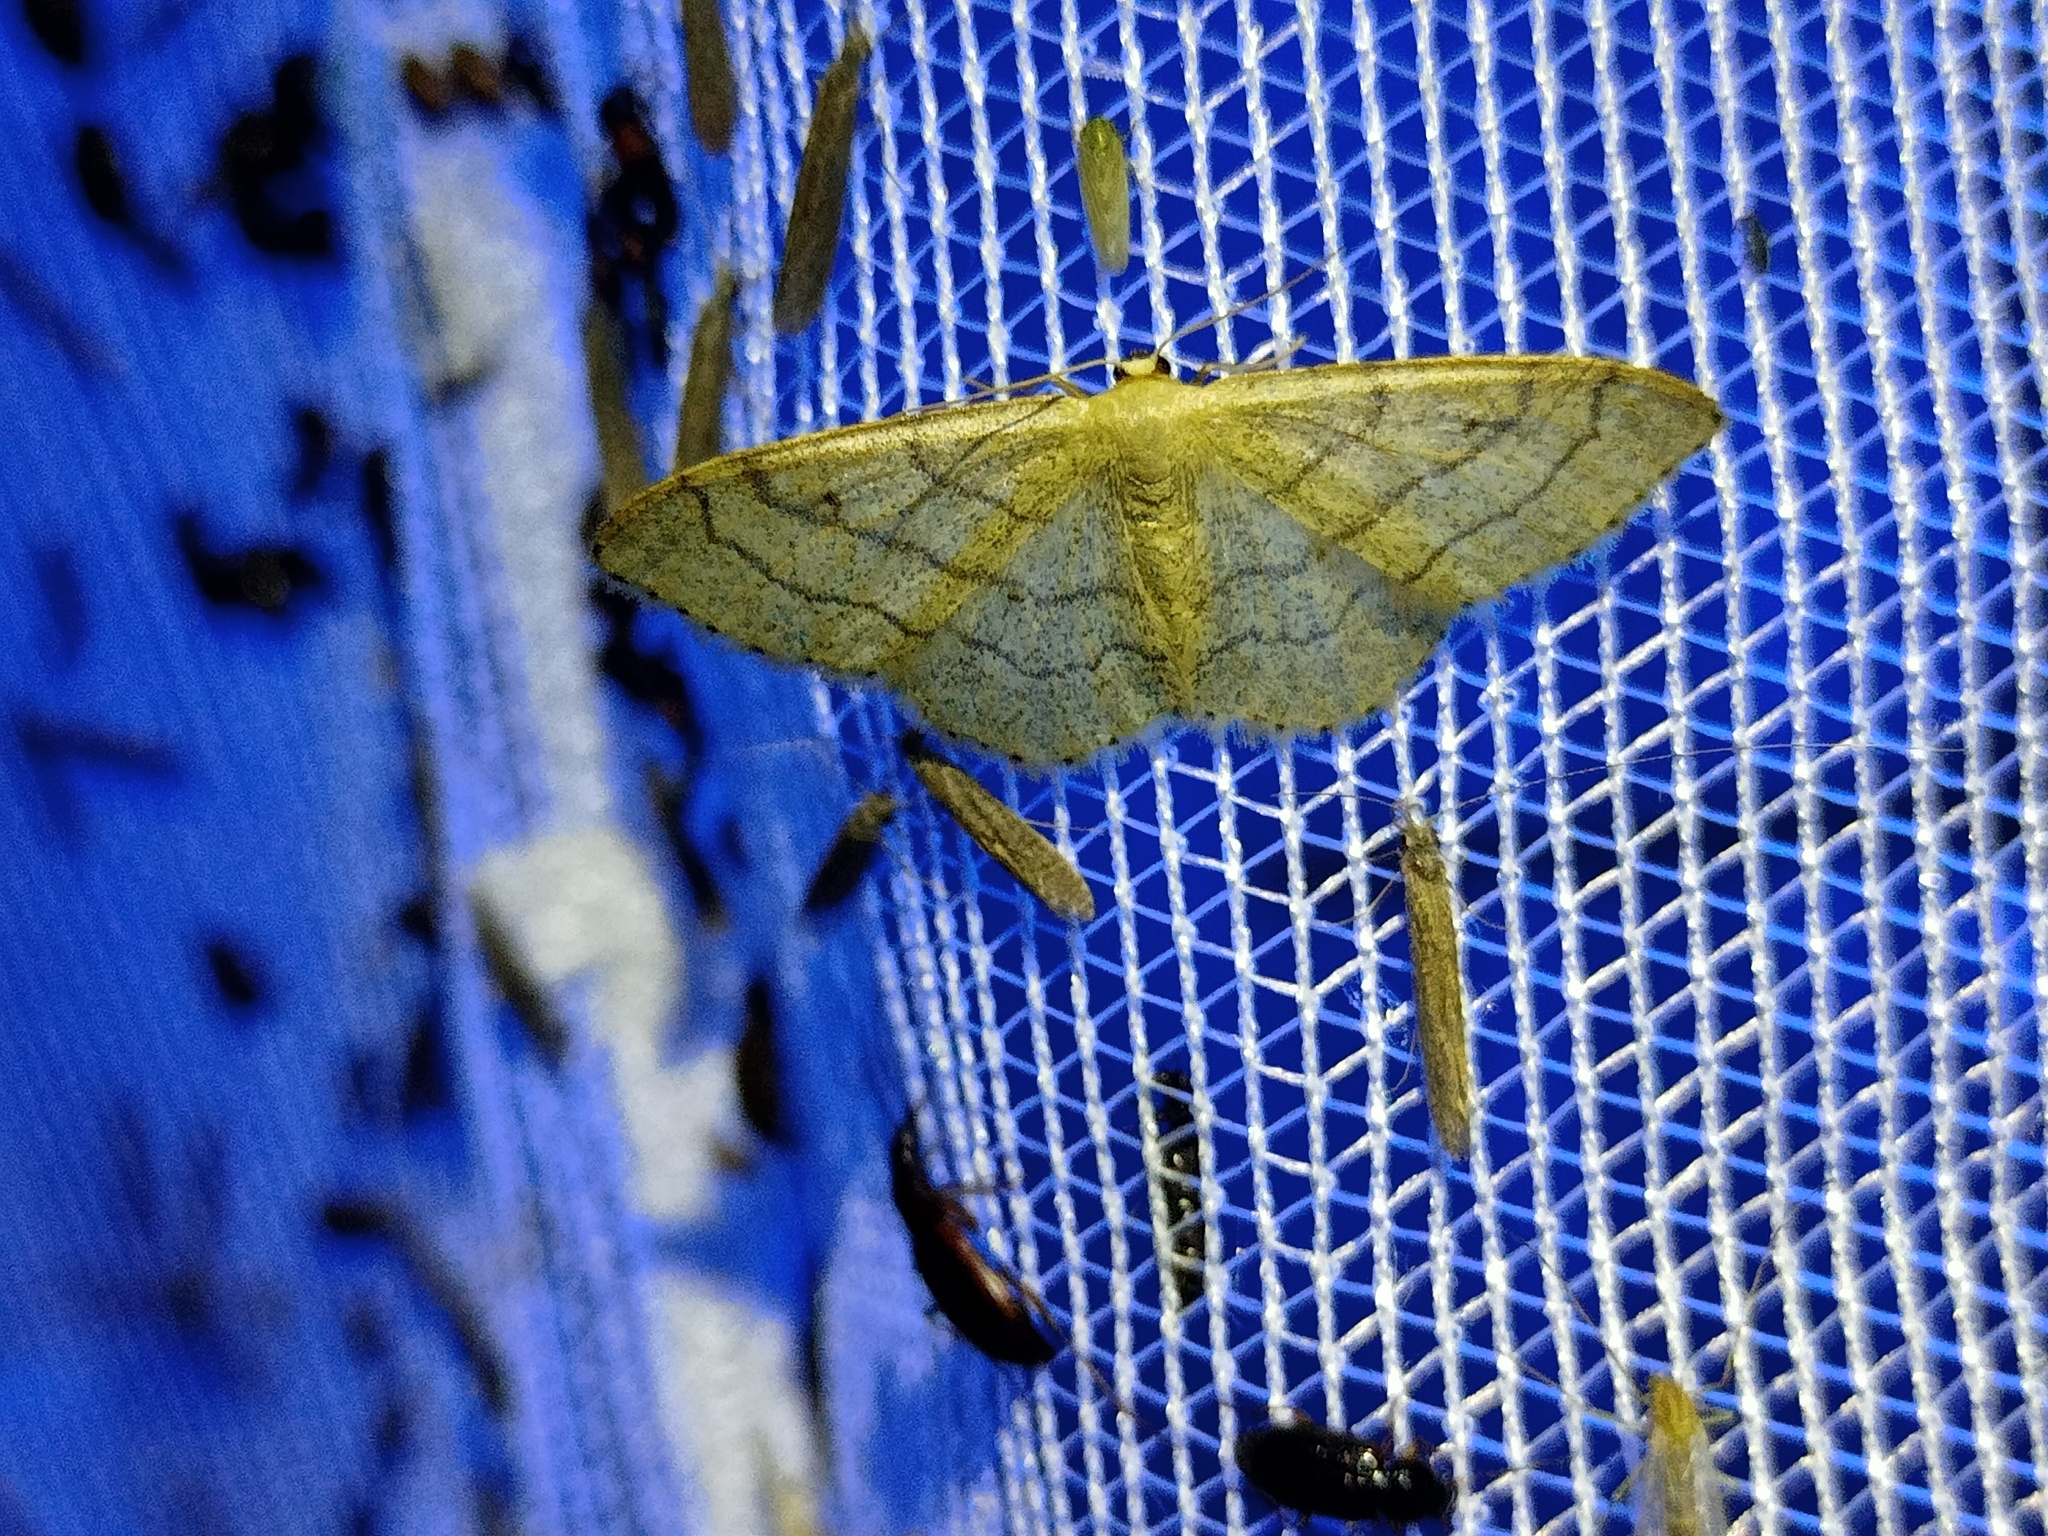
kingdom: Animalia
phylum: Arthropoda
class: Insecta
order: Lepidoptera
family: Geometridae
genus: Idaea
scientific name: Idaea aversata
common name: Riband wave
